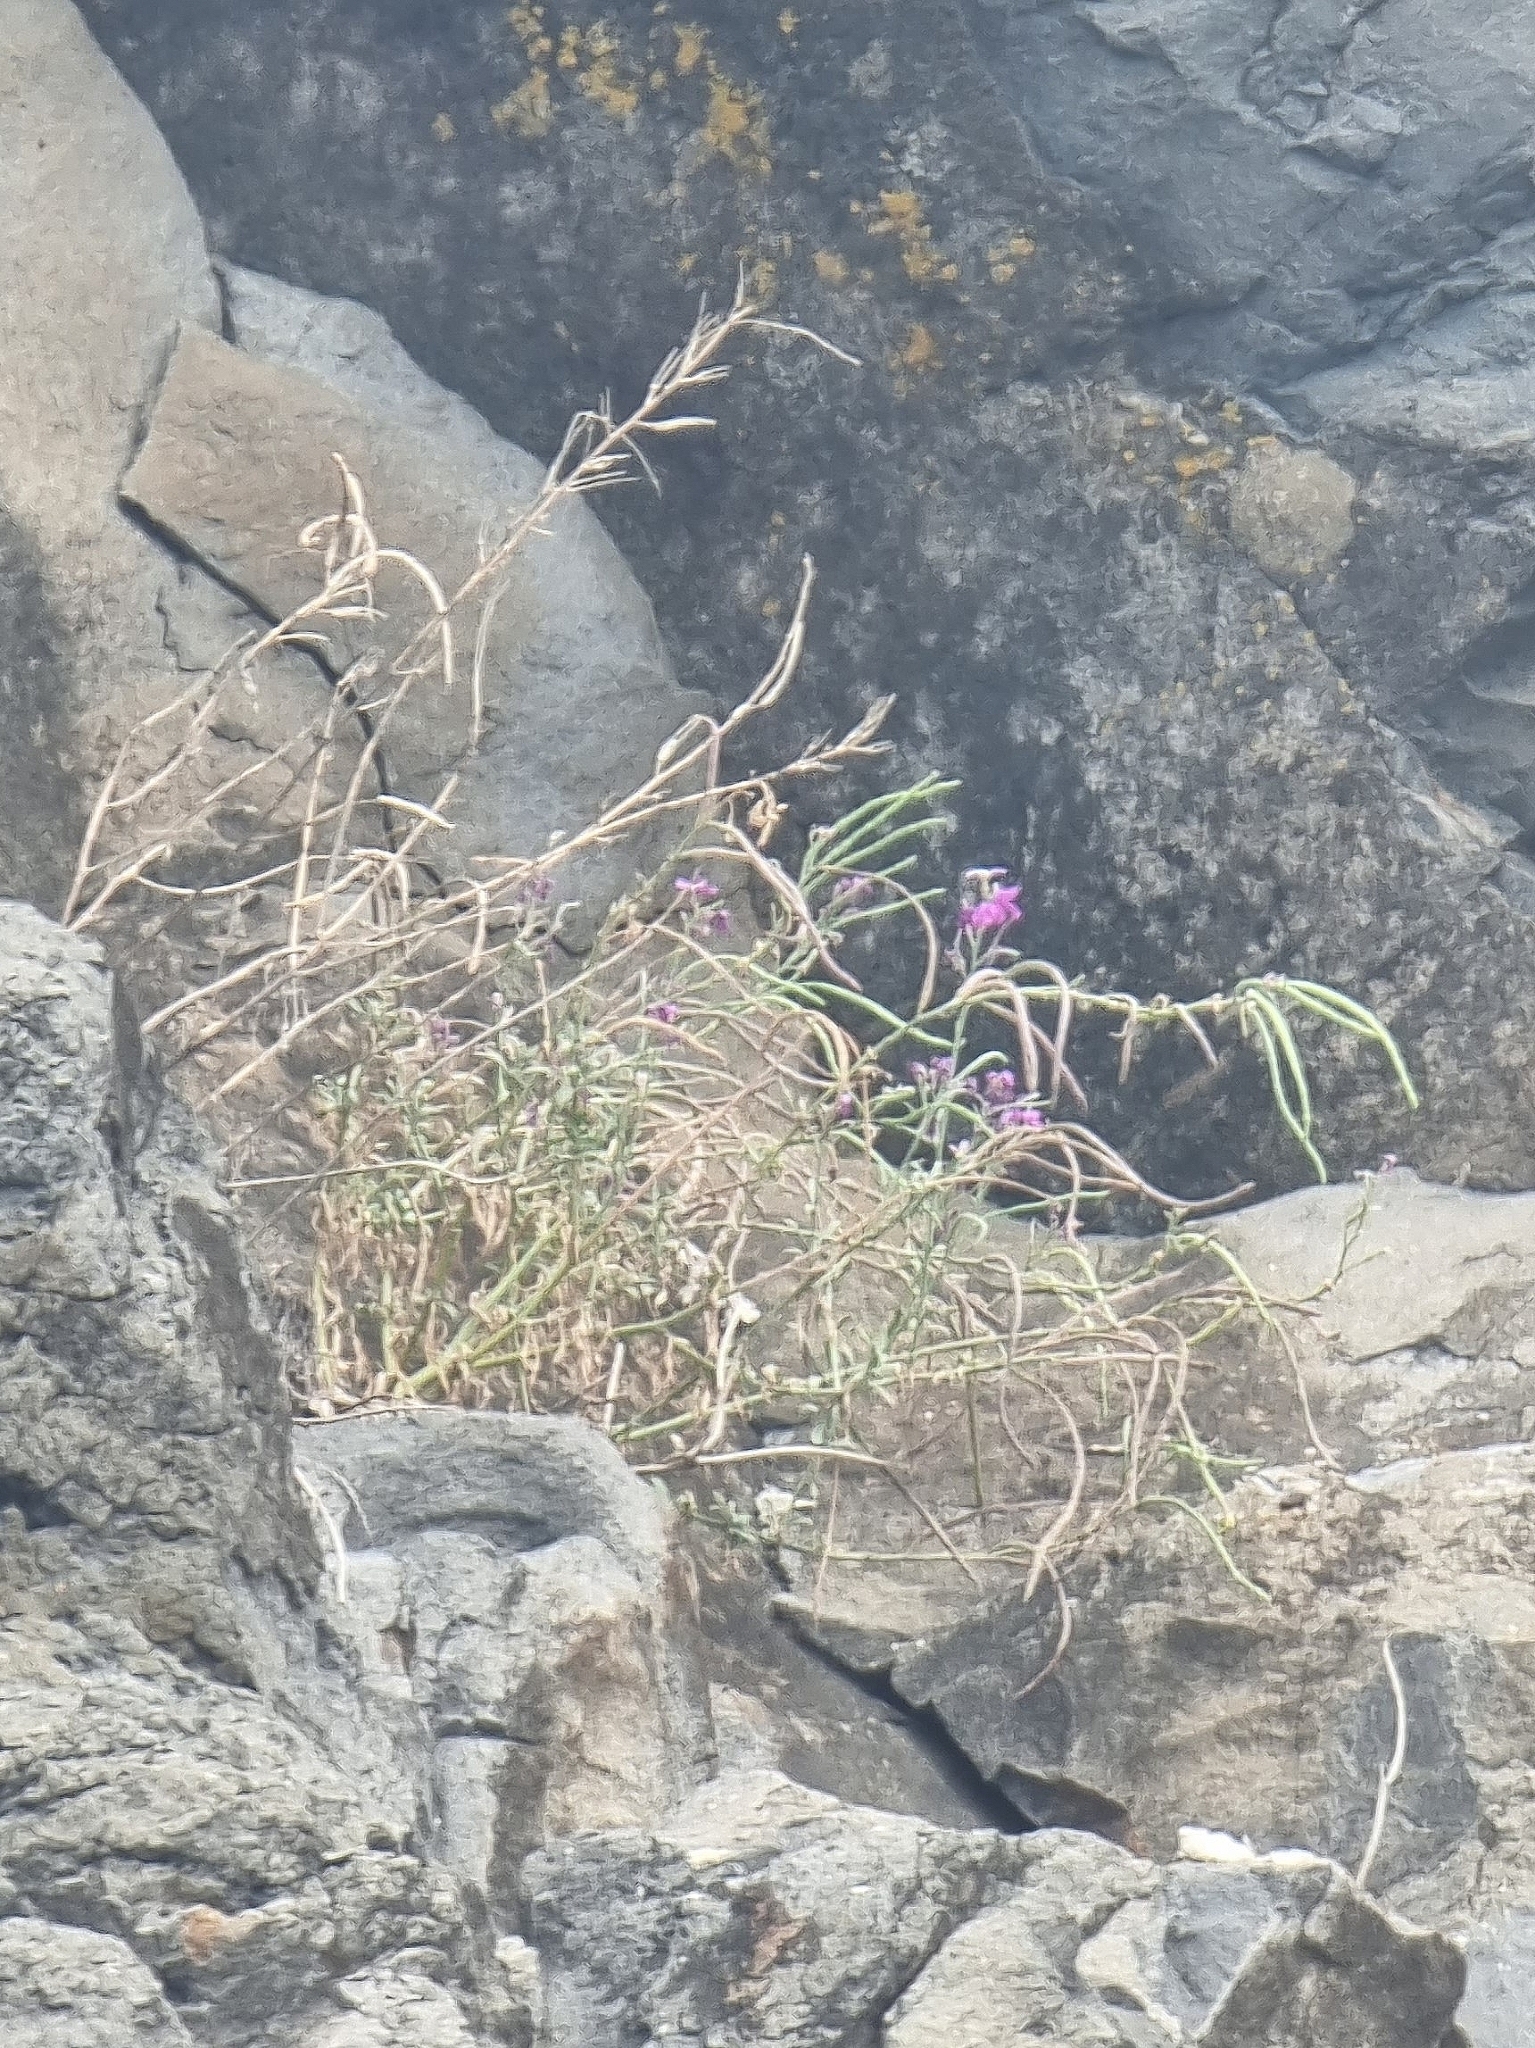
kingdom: Plantae
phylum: Tracheophyta
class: Magnoliopsida
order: Brassicales
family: Brassicaceae
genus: Matthiola
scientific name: Matthiola maderensis
